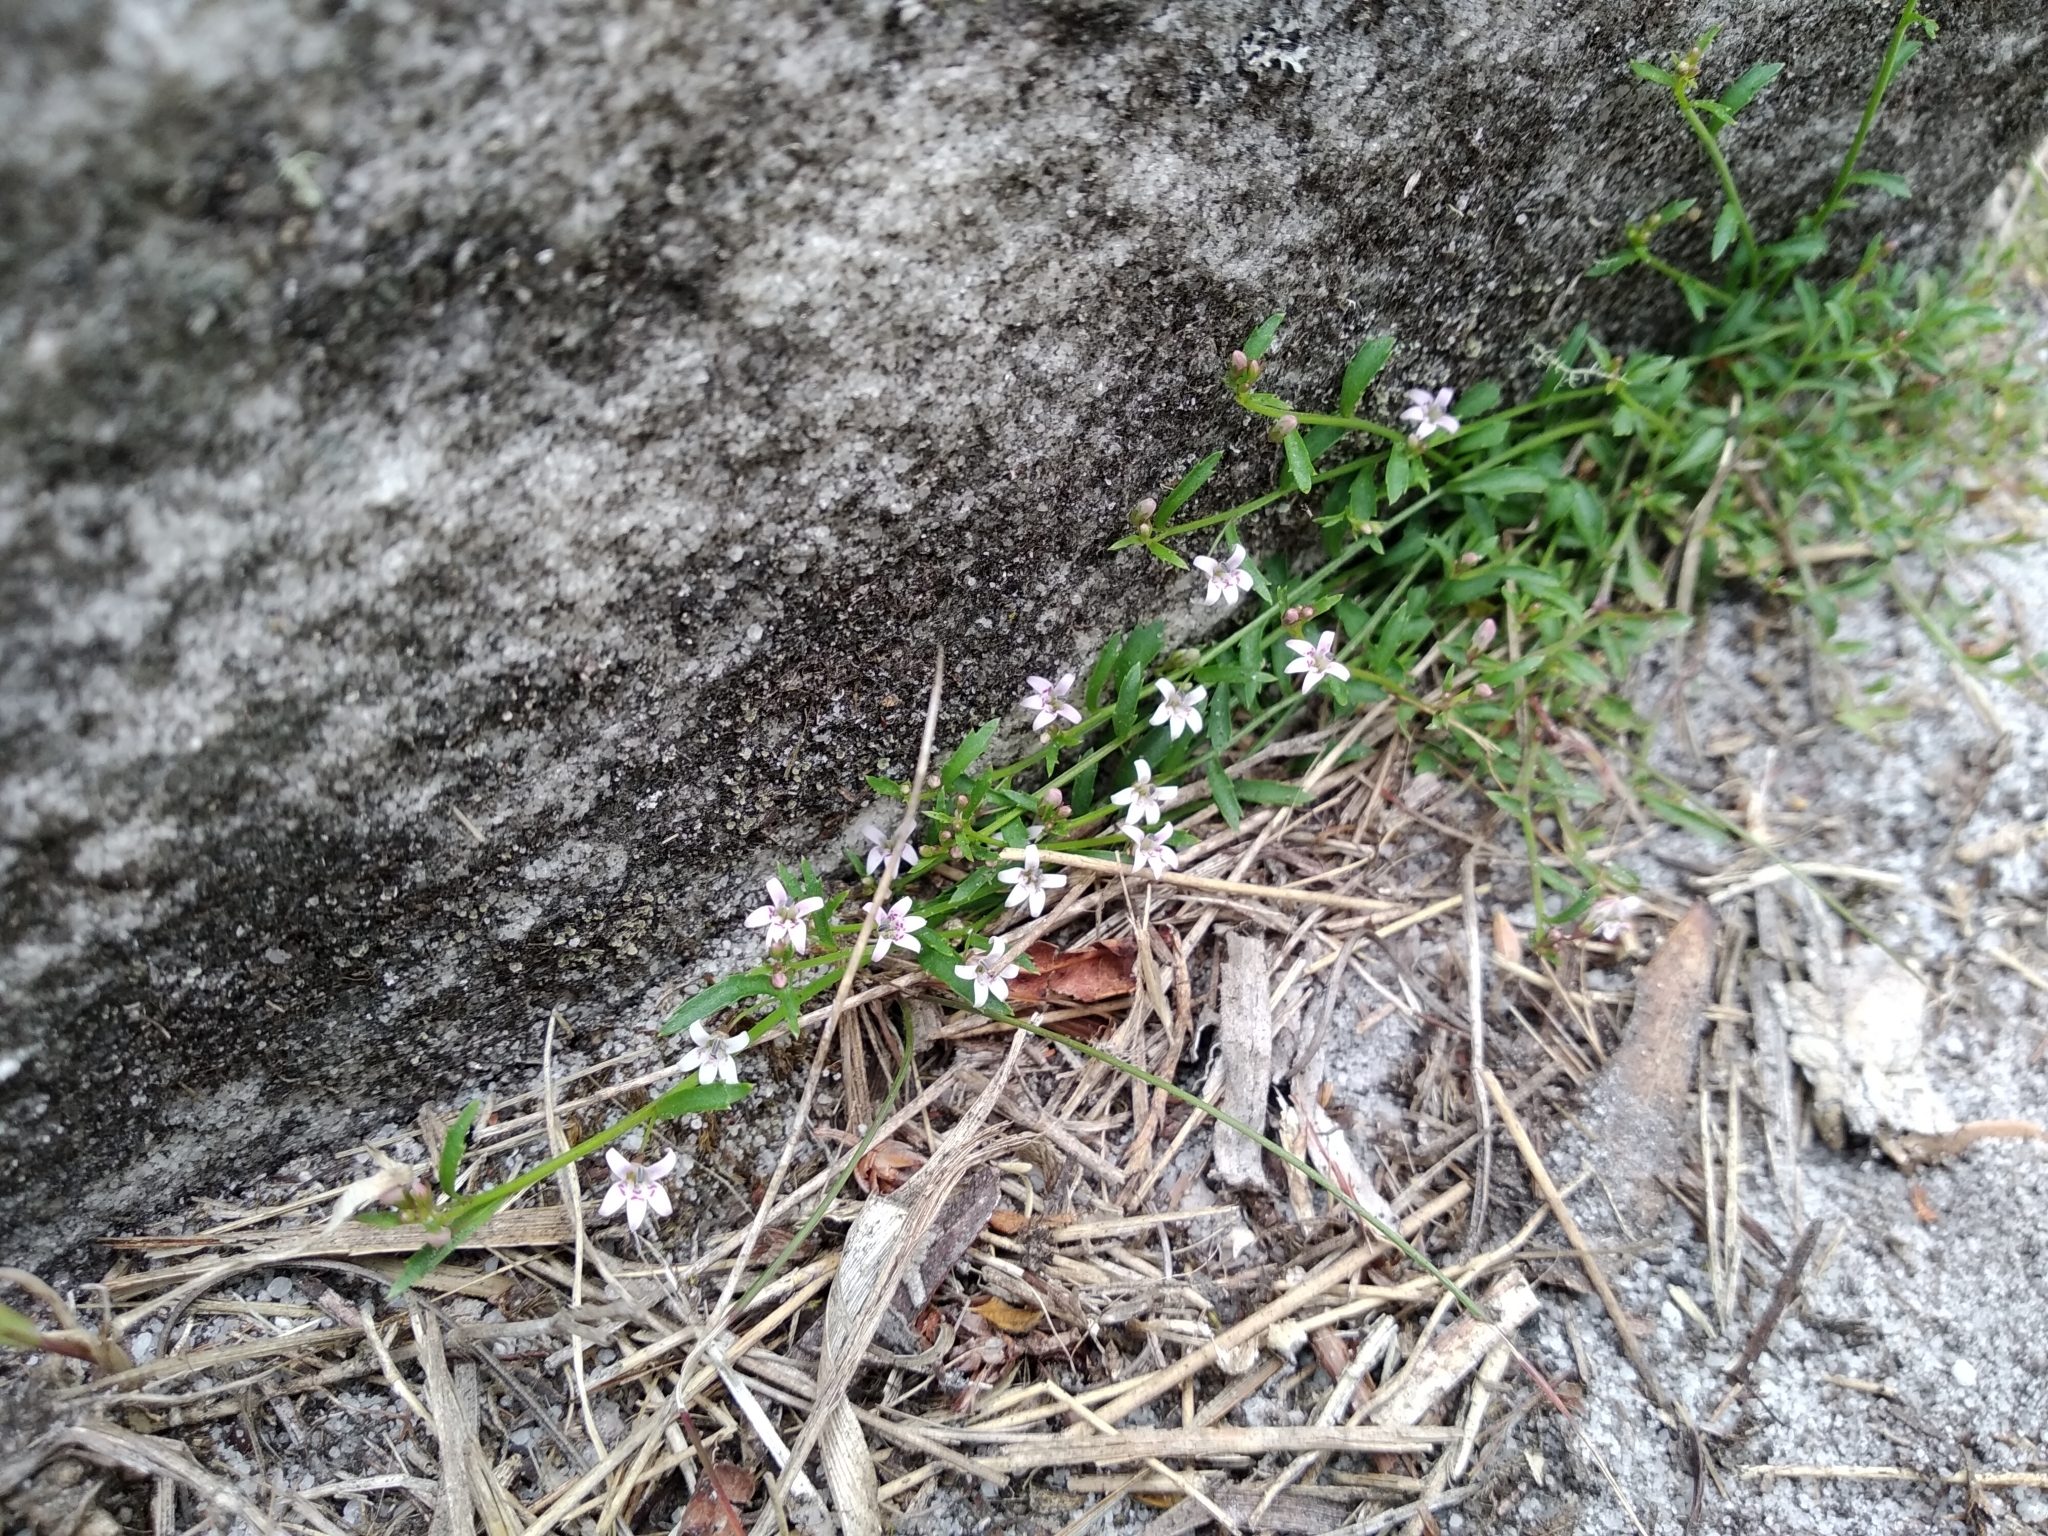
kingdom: Plantae
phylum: Tracheophyta
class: Magnoliopsida
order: Asterales
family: Campanulaceae
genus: Lobelia
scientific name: Lobelia eckloniana
